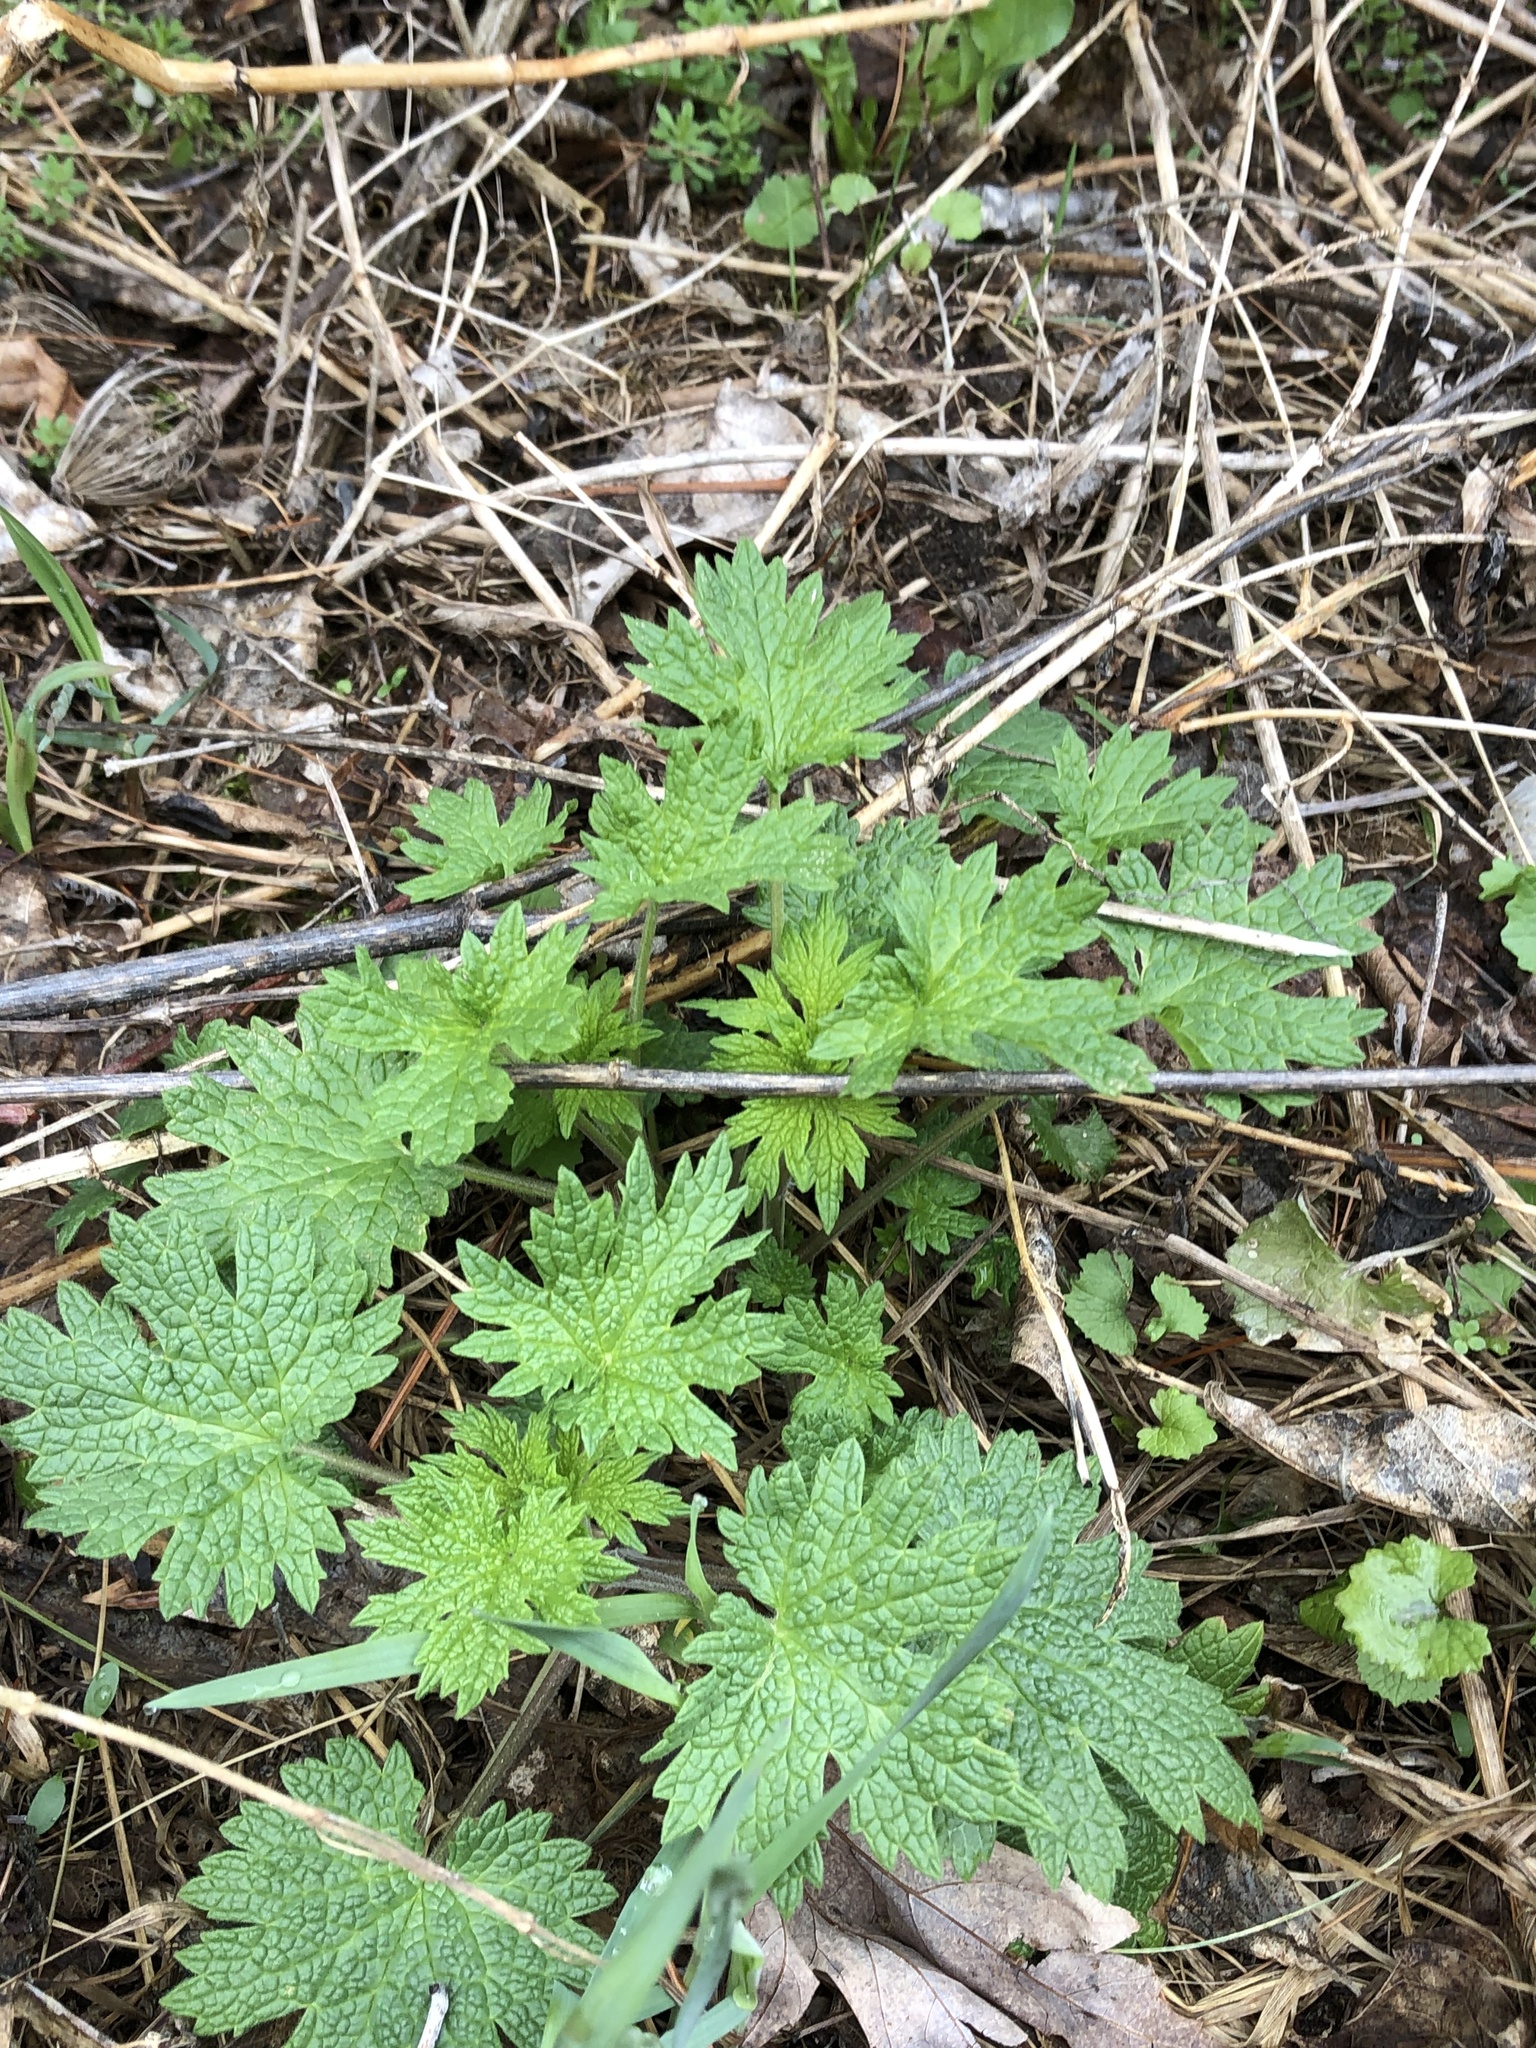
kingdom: Plantae
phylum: Tracheophyta
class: Magnoliopsida
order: Lamiales
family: Lamiaceae
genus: Leonurus
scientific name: Leonurus cardiaca
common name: Motherwort
